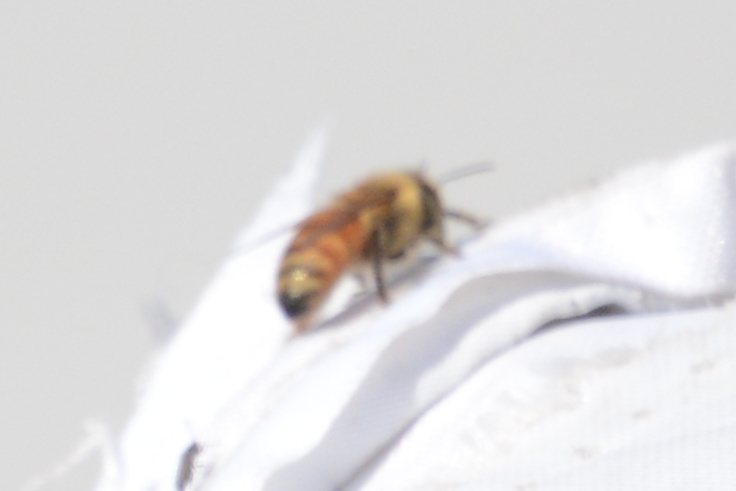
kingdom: Animalia
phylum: Arthropoda
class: Insecta
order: Hymenoptera
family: Apidae
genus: Apis
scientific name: Apis mellifera
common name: Honey bee
